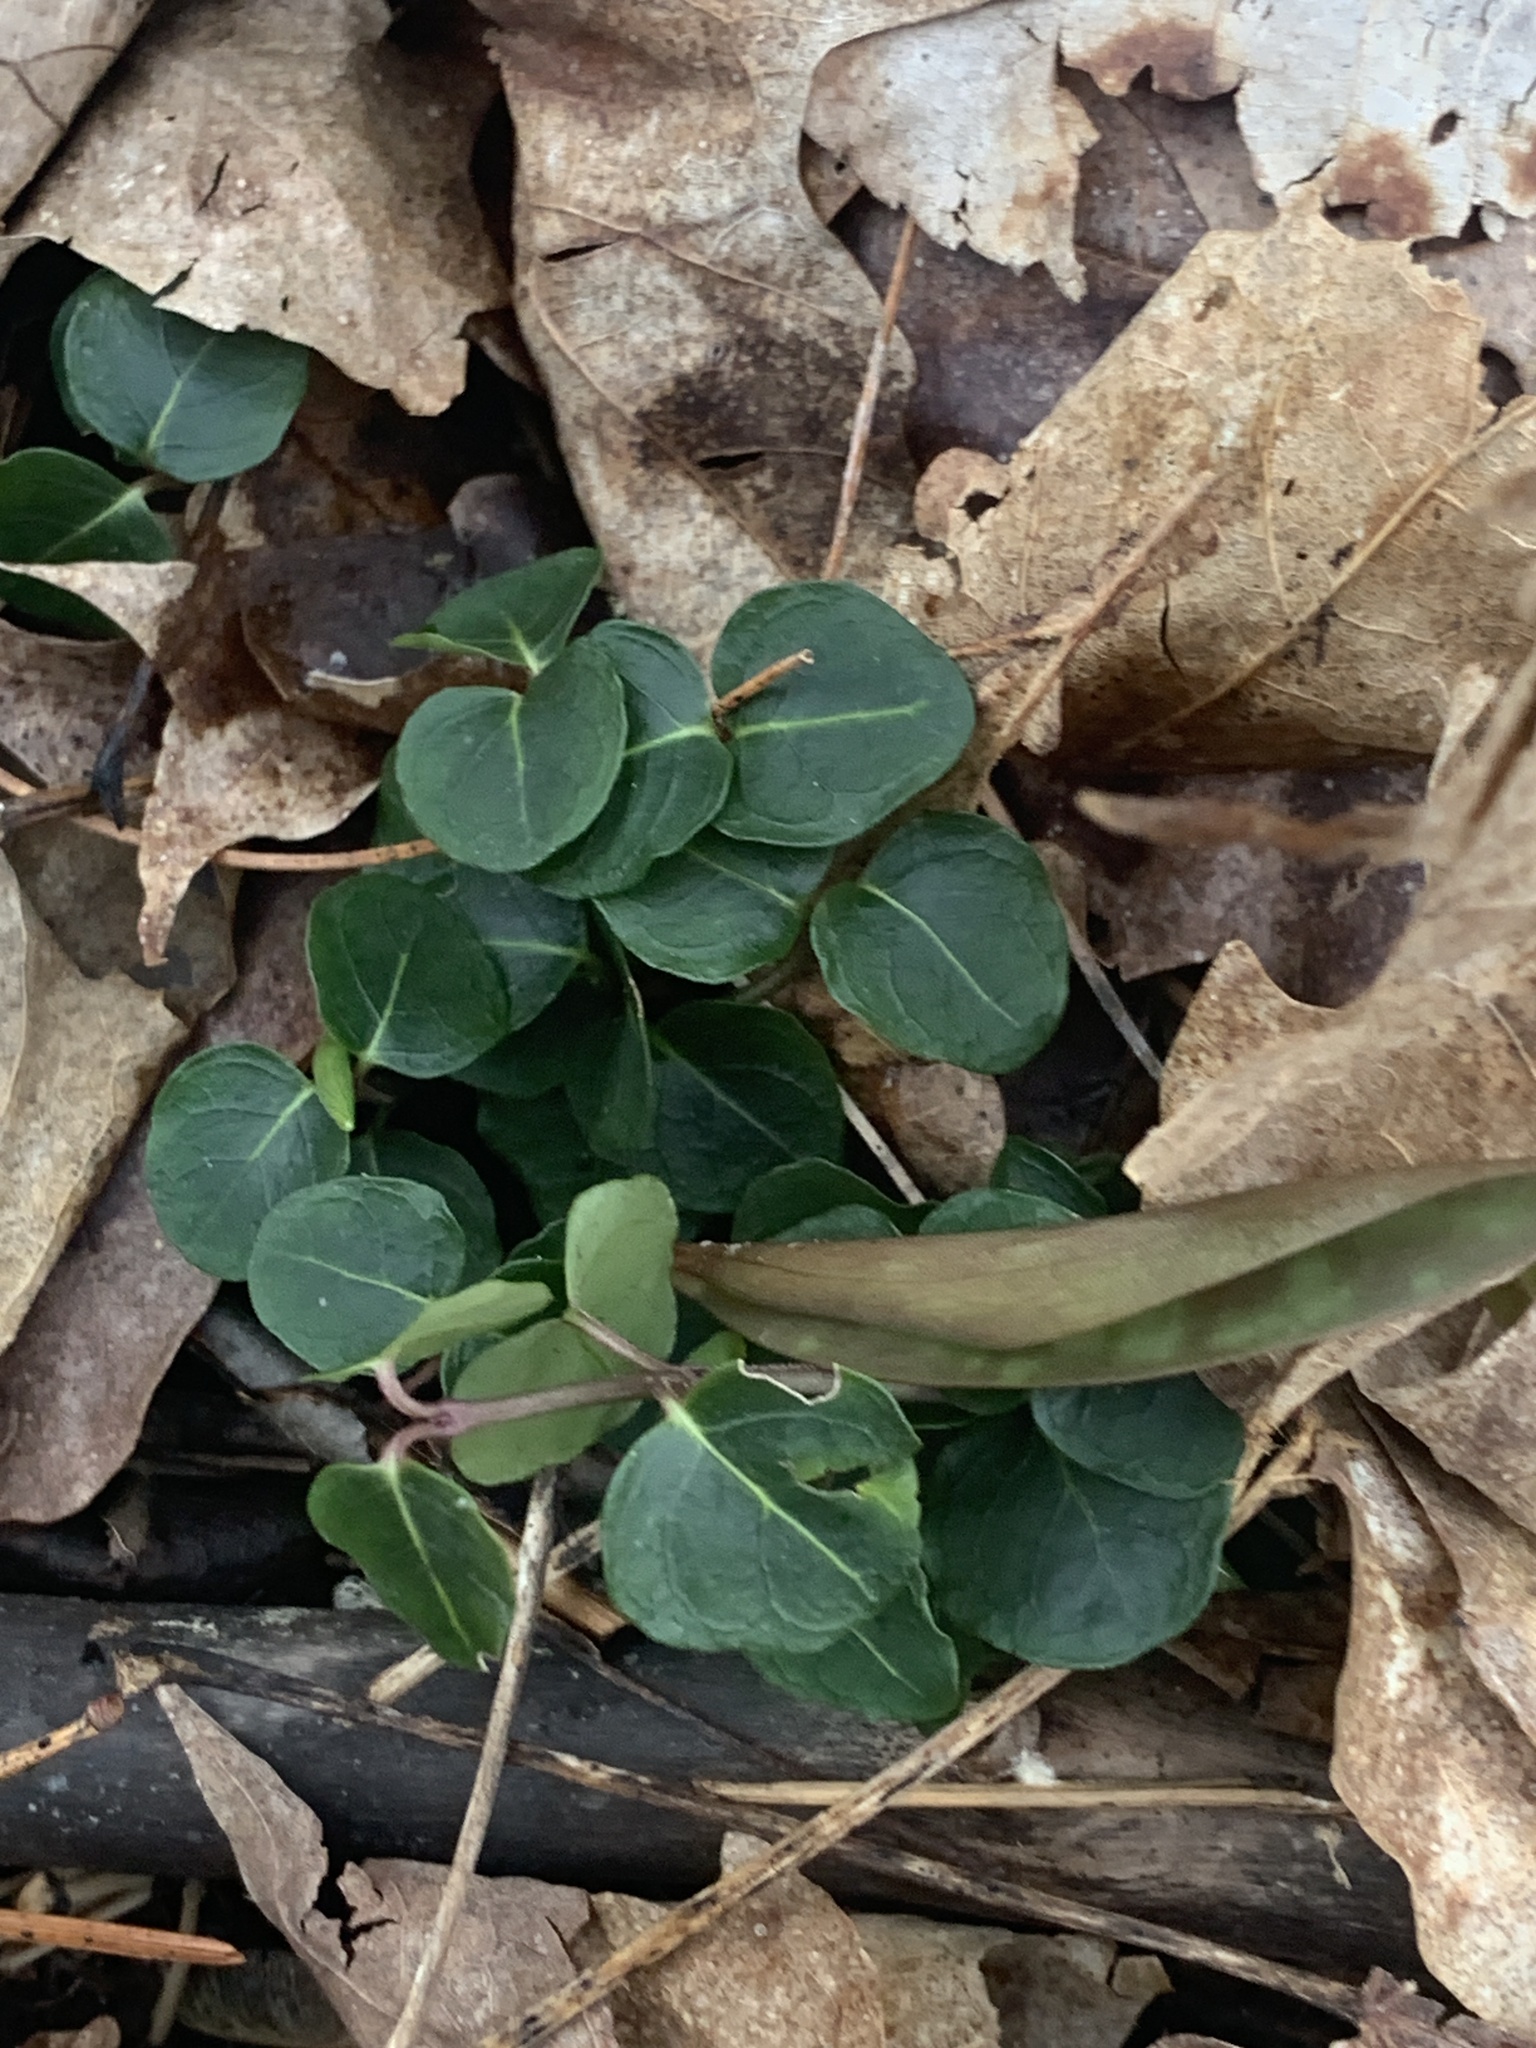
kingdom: Plantae
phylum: Tracheophyta
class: Magnoliopsida
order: Gentianales
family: Rubiaceae
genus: Mitchella
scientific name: Mitchella repens
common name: Partridge-berry
